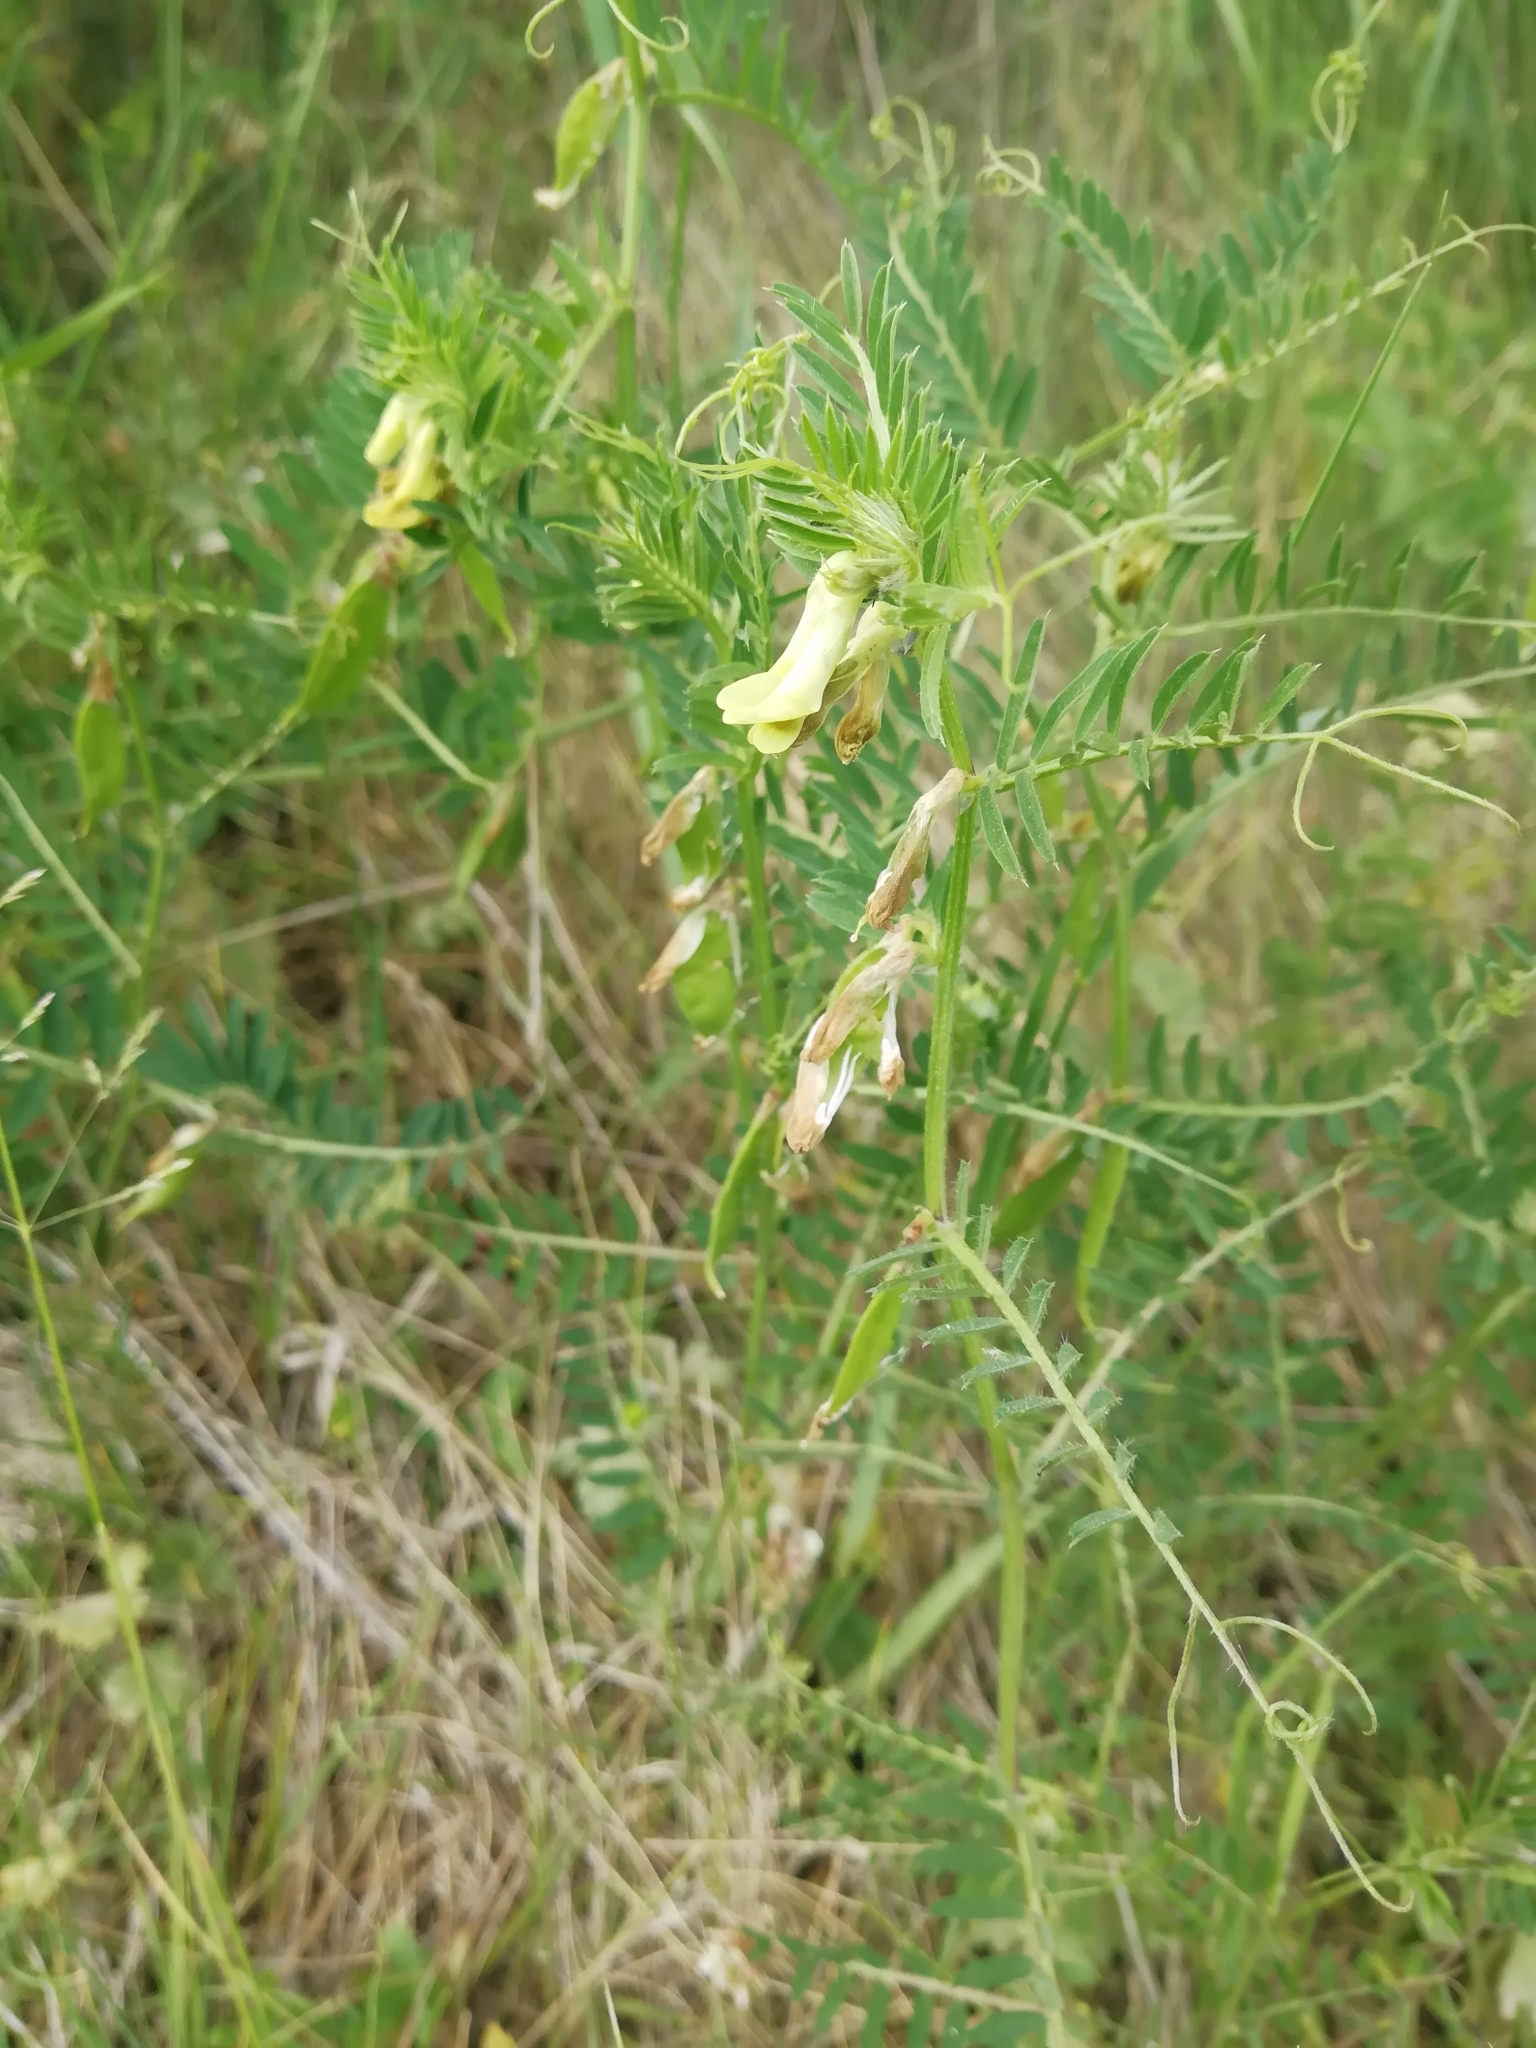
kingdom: Plantae
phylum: Tracheophyta
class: Magnoliopsida
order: Fabales
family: Fabaceae
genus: Vicia
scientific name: Vicia ciliatula
